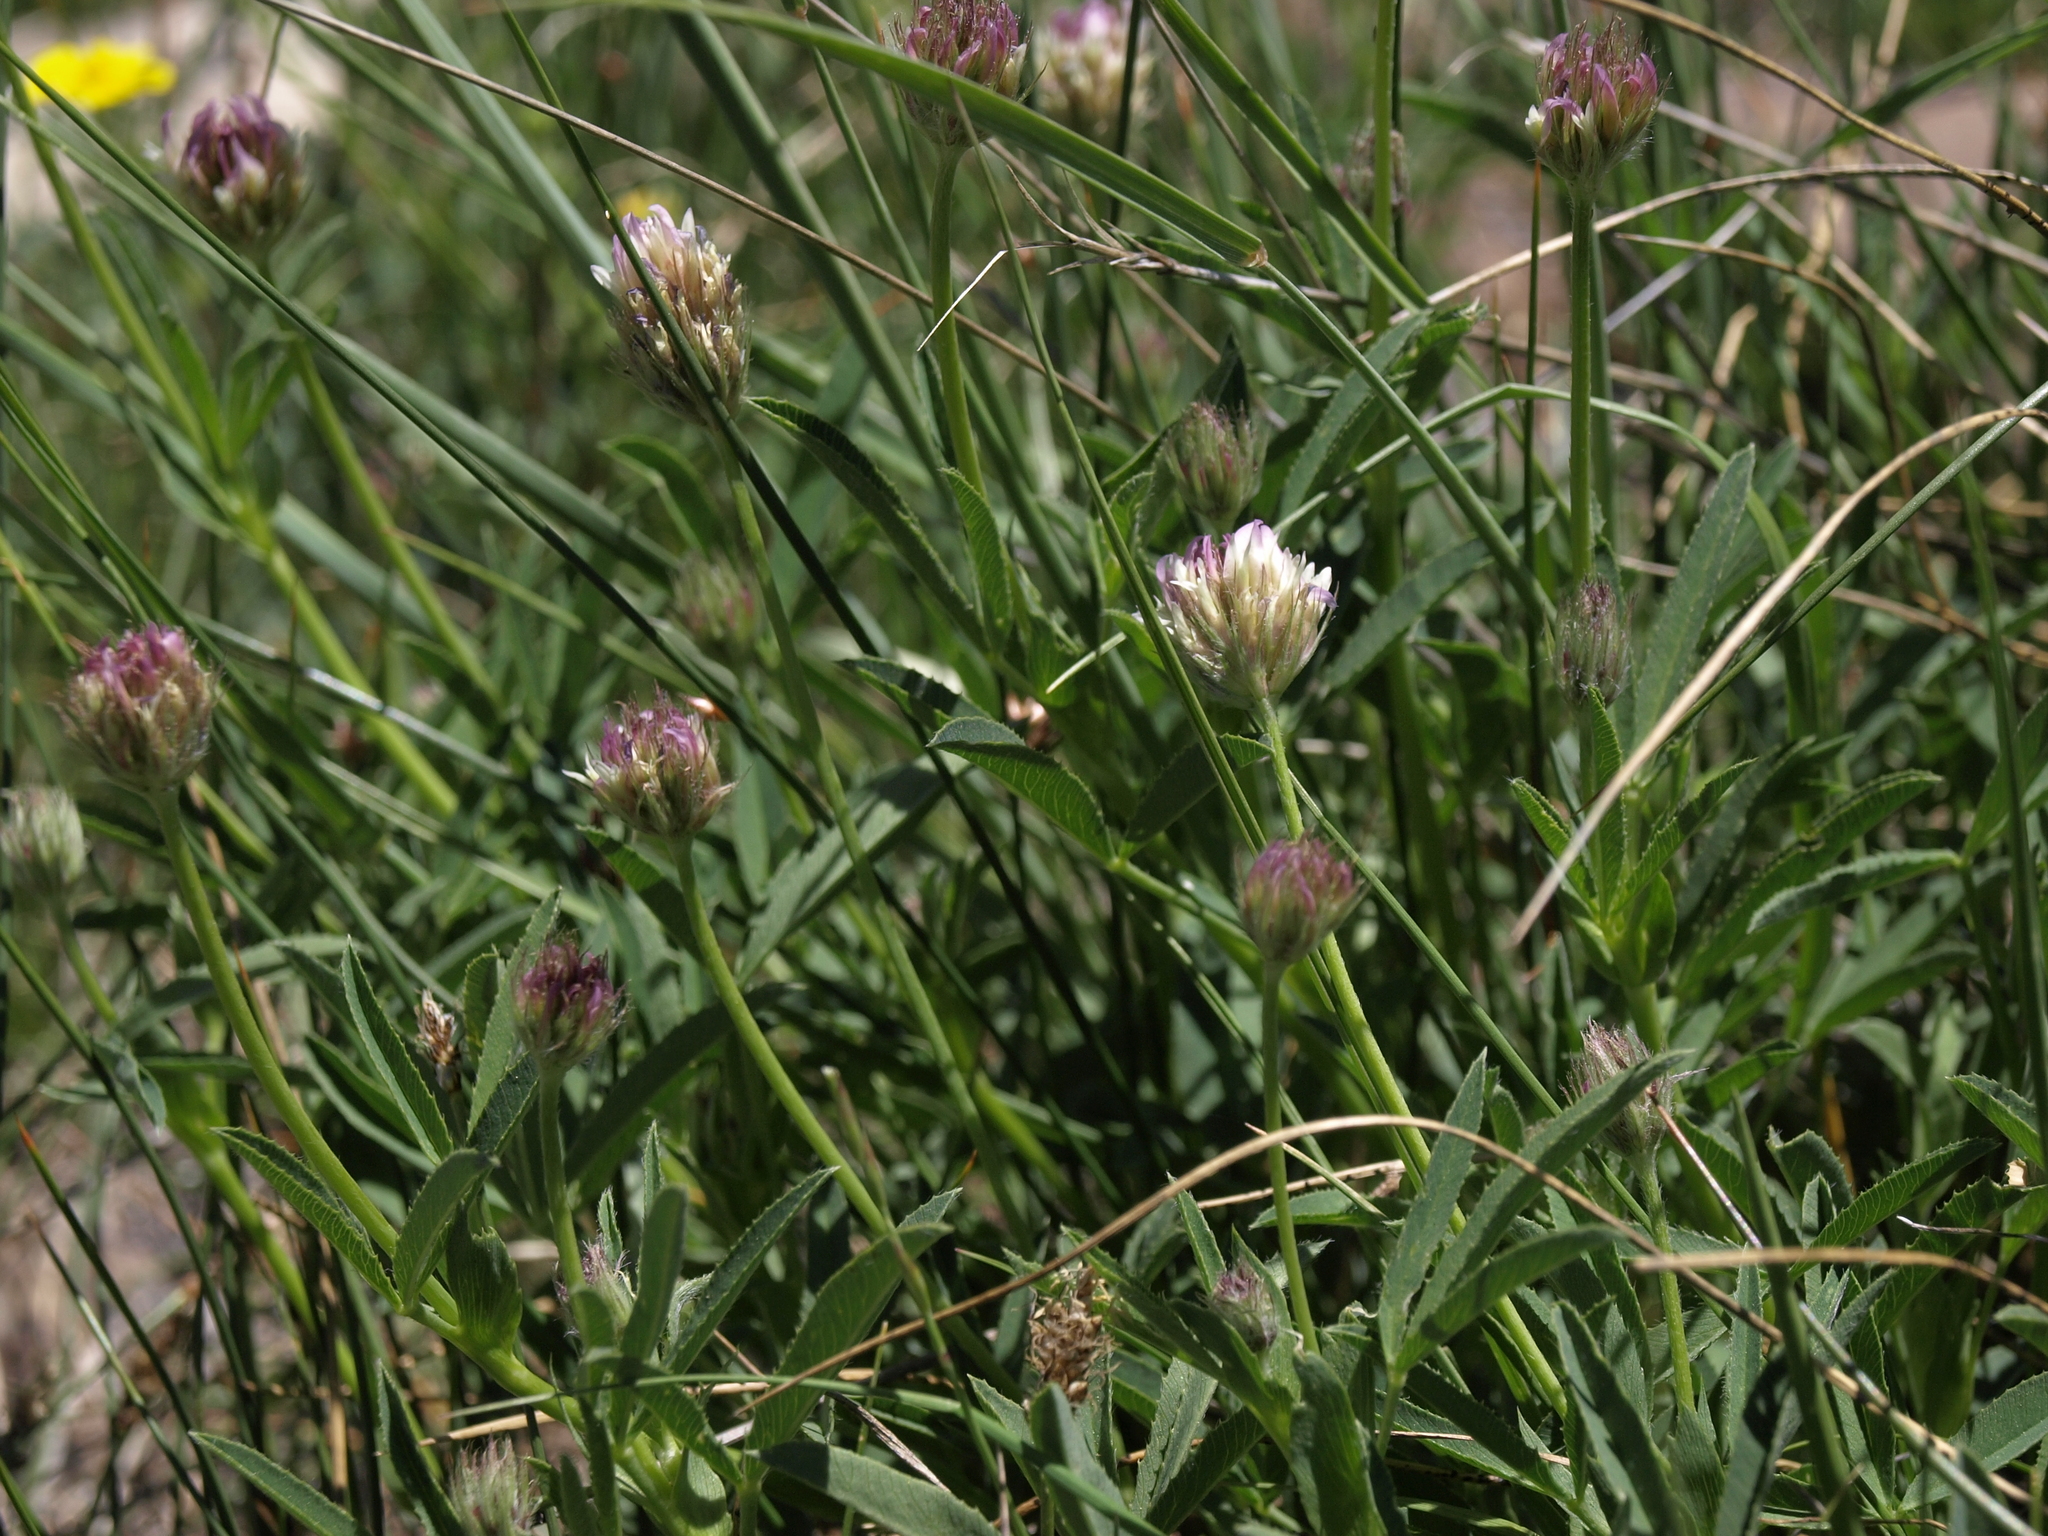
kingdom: Plantae
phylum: Tracheophyta
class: Magnoliopsida
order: Fabales
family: Fabaceae
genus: Trifolium
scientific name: Trifolium longipes
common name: Long-stalk clover
